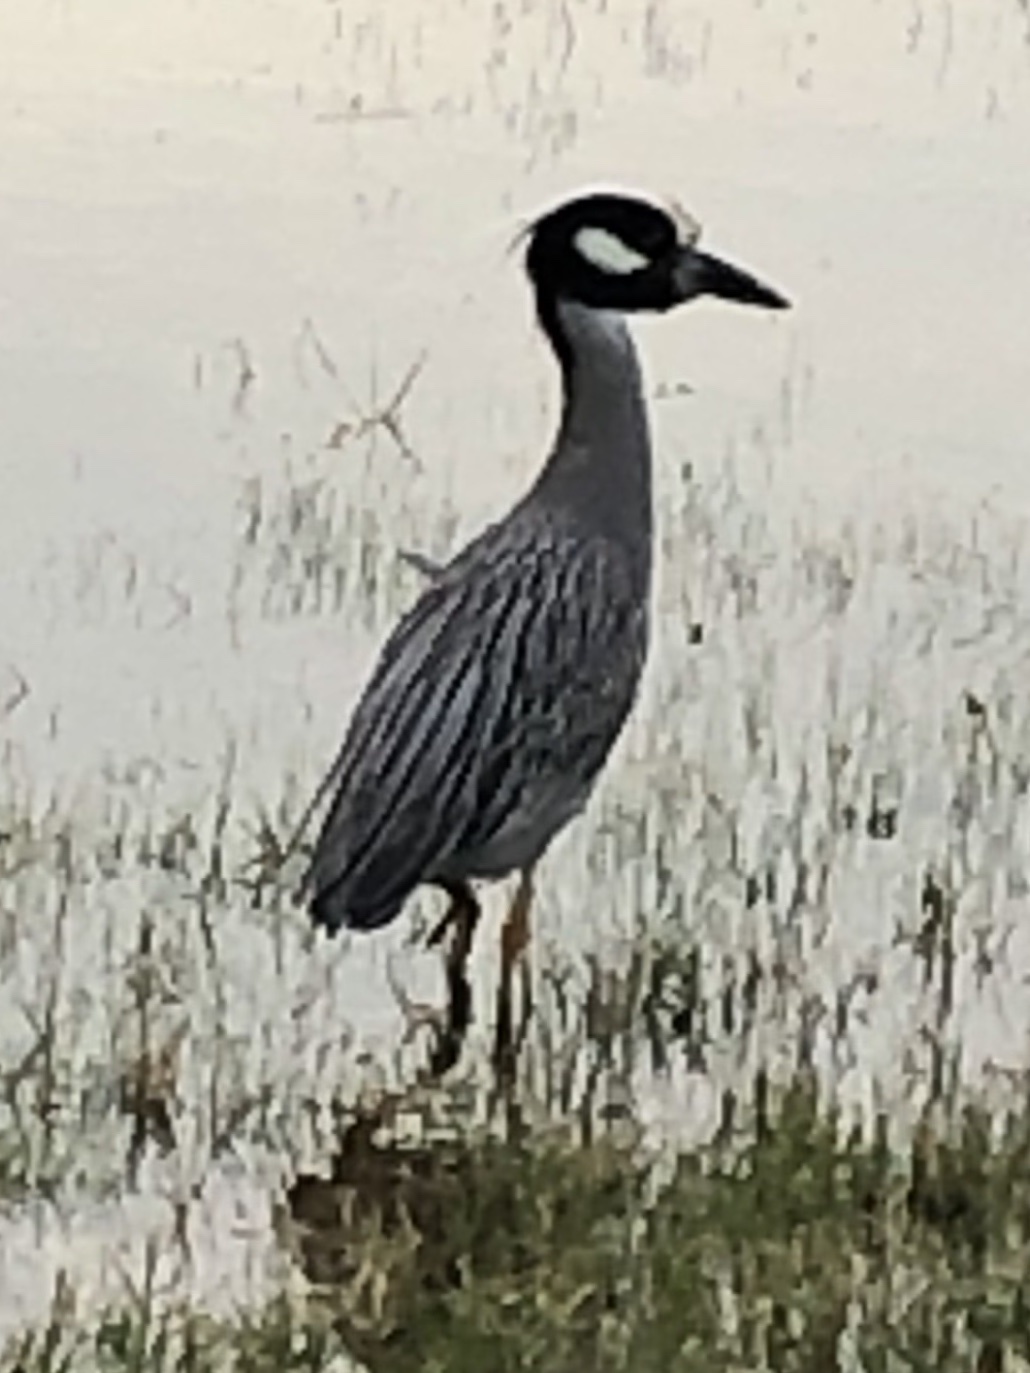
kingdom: Animalia
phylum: Chordata
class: Aves
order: Pelecaniformes
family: Ardeidae
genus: Nyctanassa
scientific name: Nyctanassa violacea
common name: Yellow-crowned night heron
